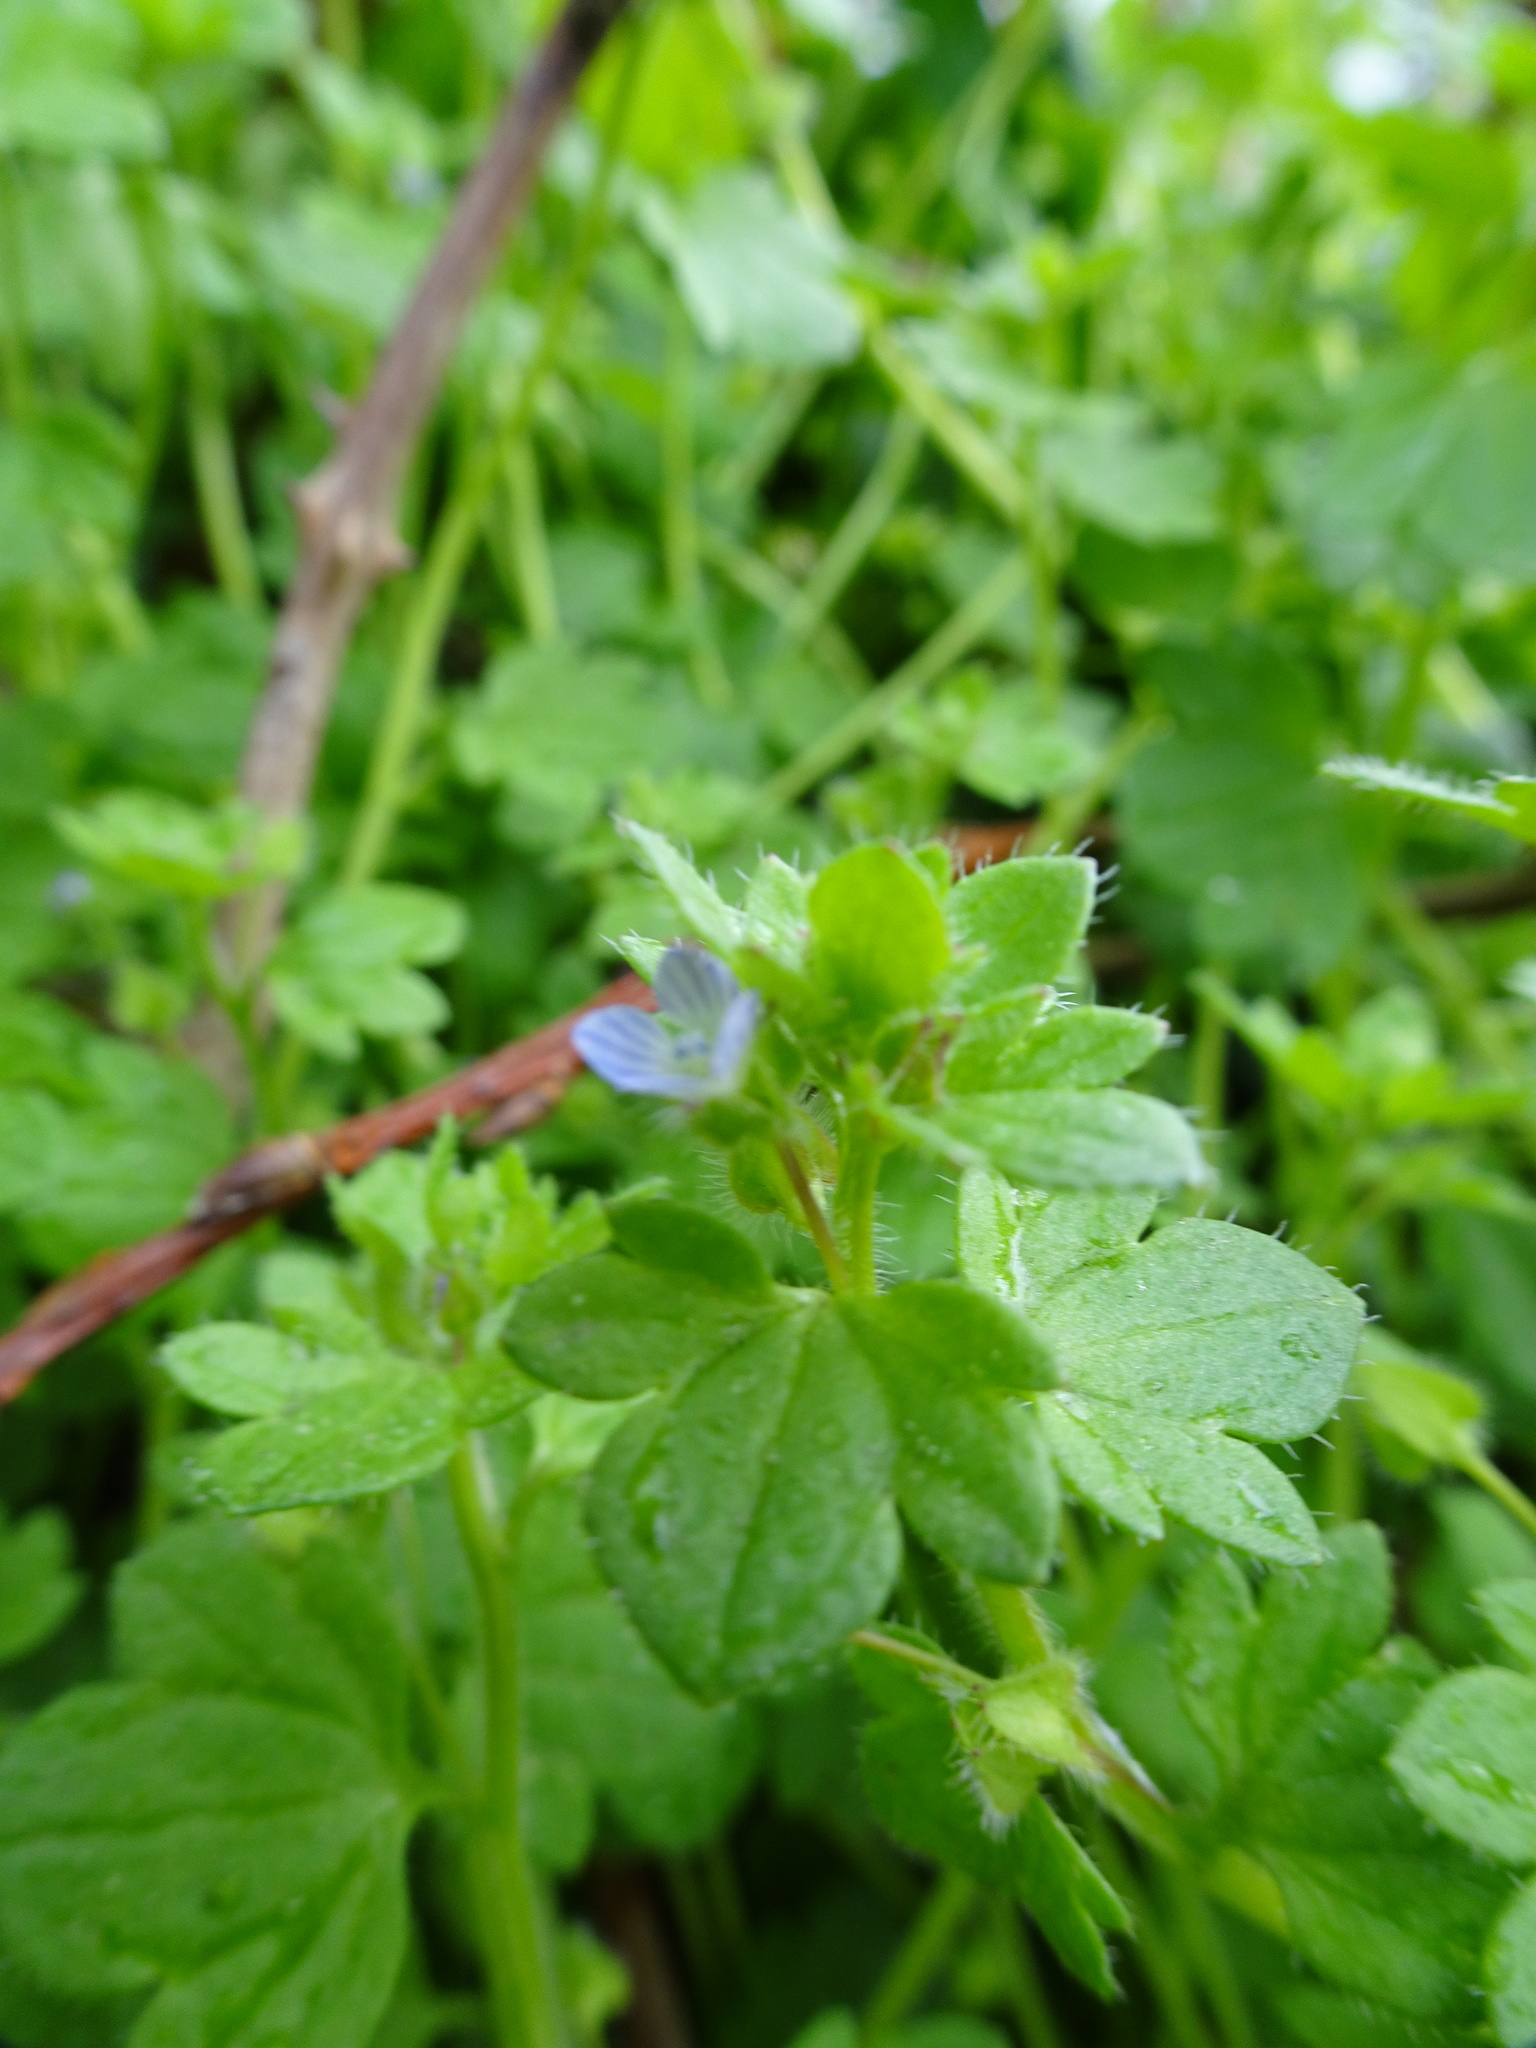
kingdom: Plantae
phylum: Tracheophyta
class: Magnoliopsida
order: Lamiales
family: Plantaginaceae
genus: Veronica
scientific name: Veronica hederifolia
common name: Ivy-leaved speedwell
